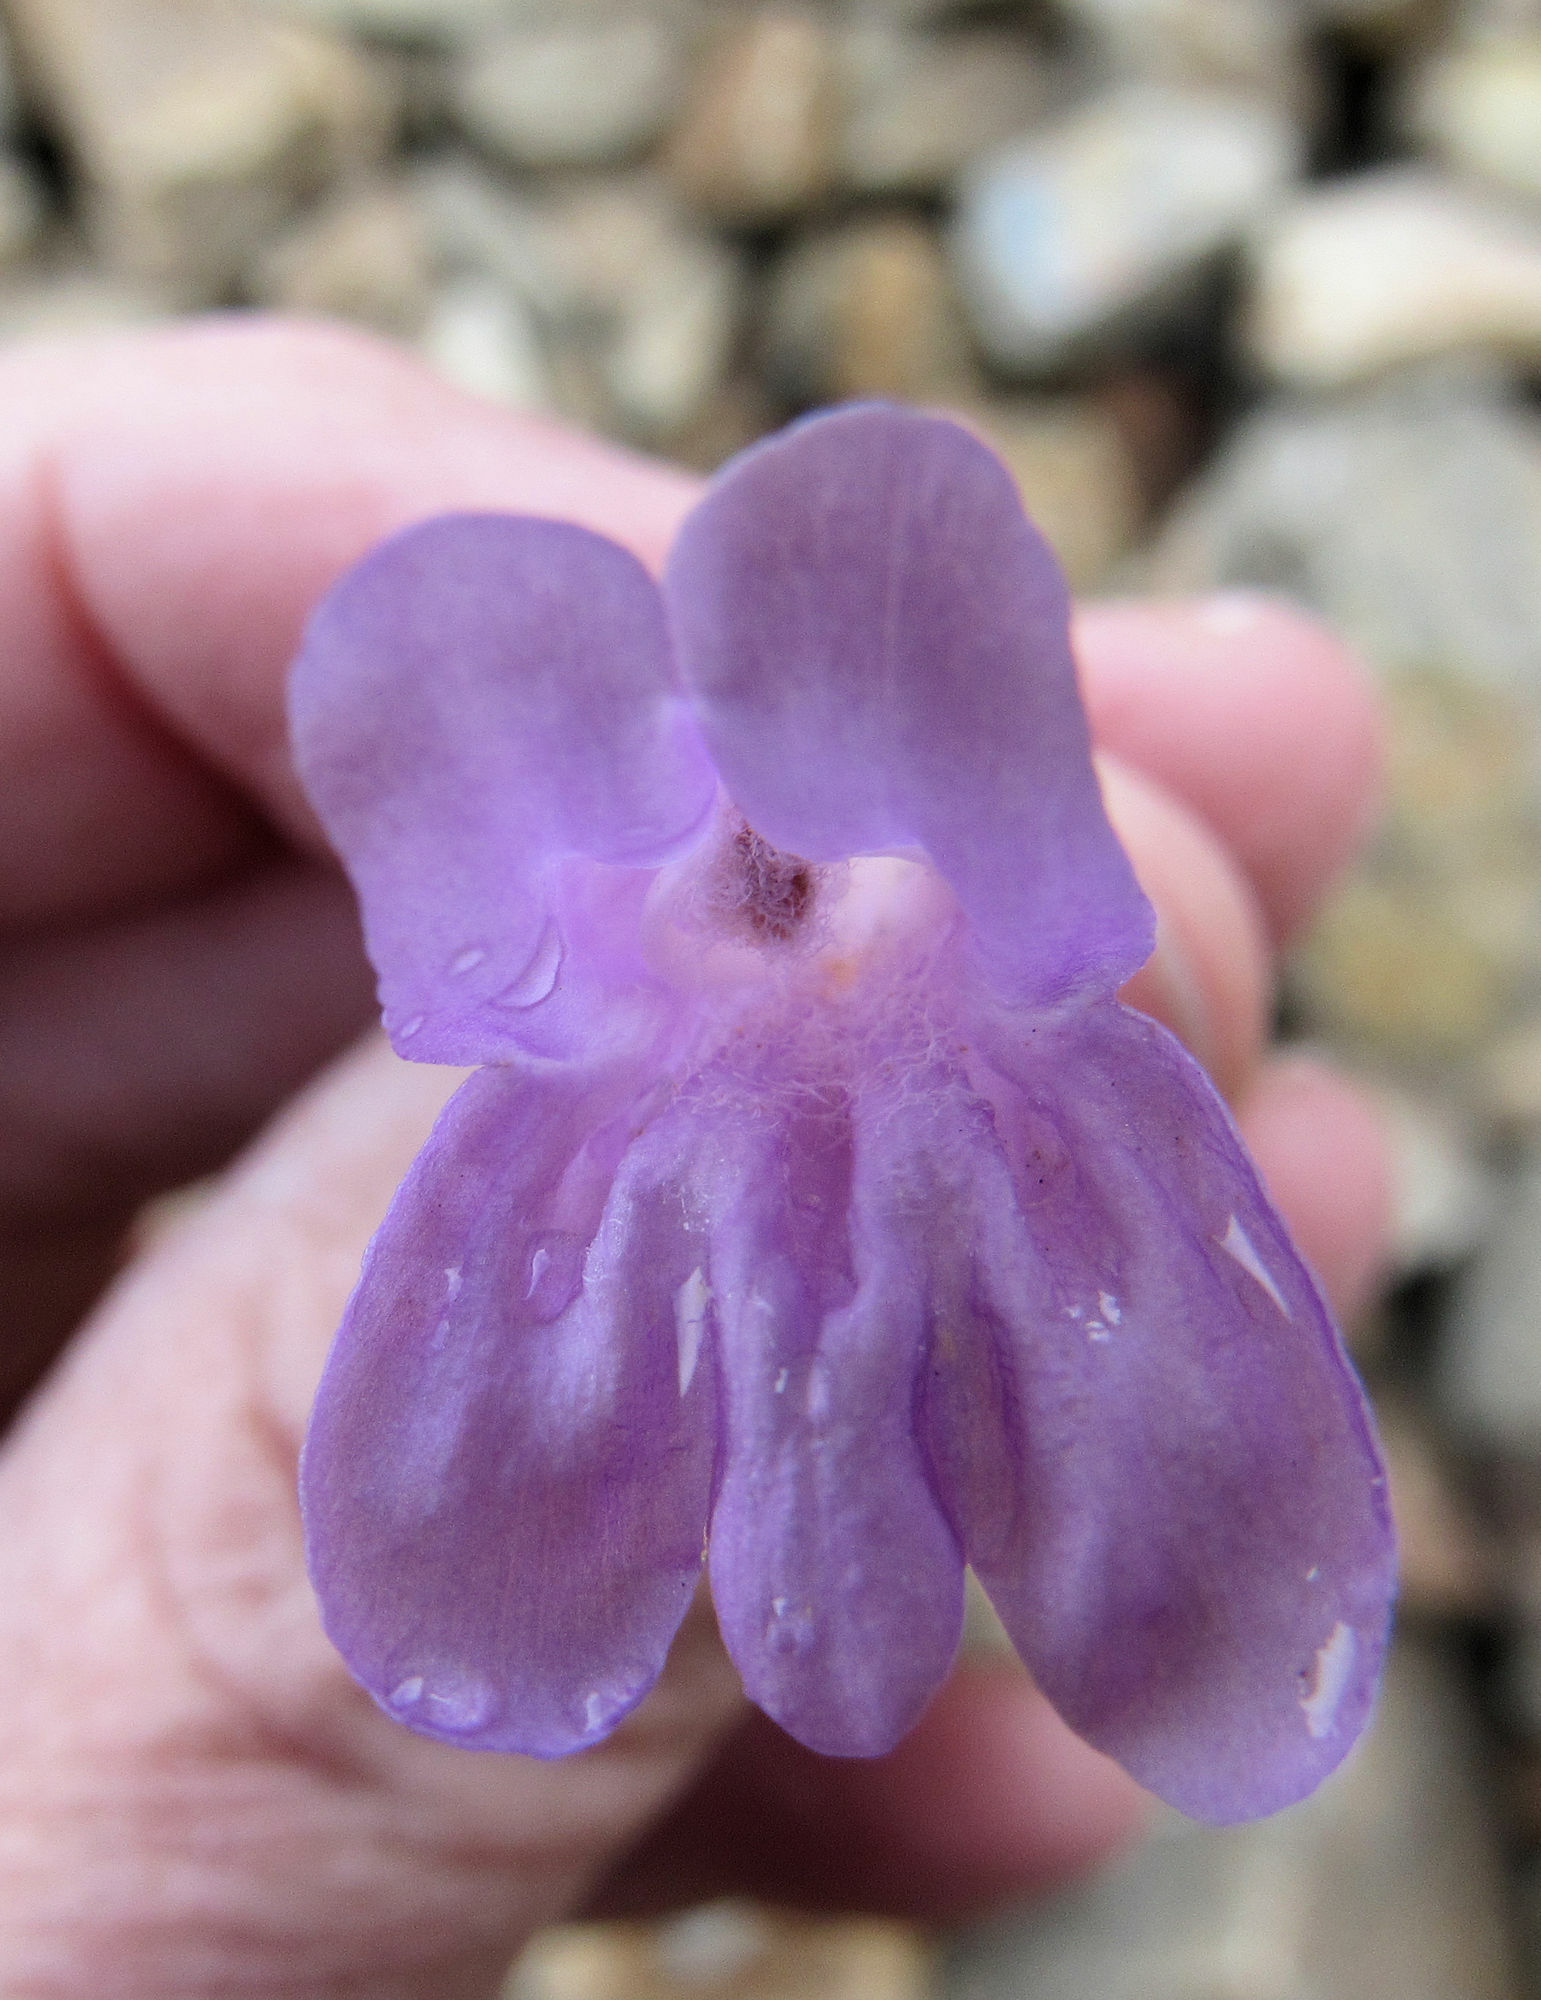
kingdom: Plantae
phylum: Tracheophyta
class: Magnoliopsida
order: Lamiales
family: Plantaginaceae
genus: Penstemon
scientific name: Penstemon montanus
